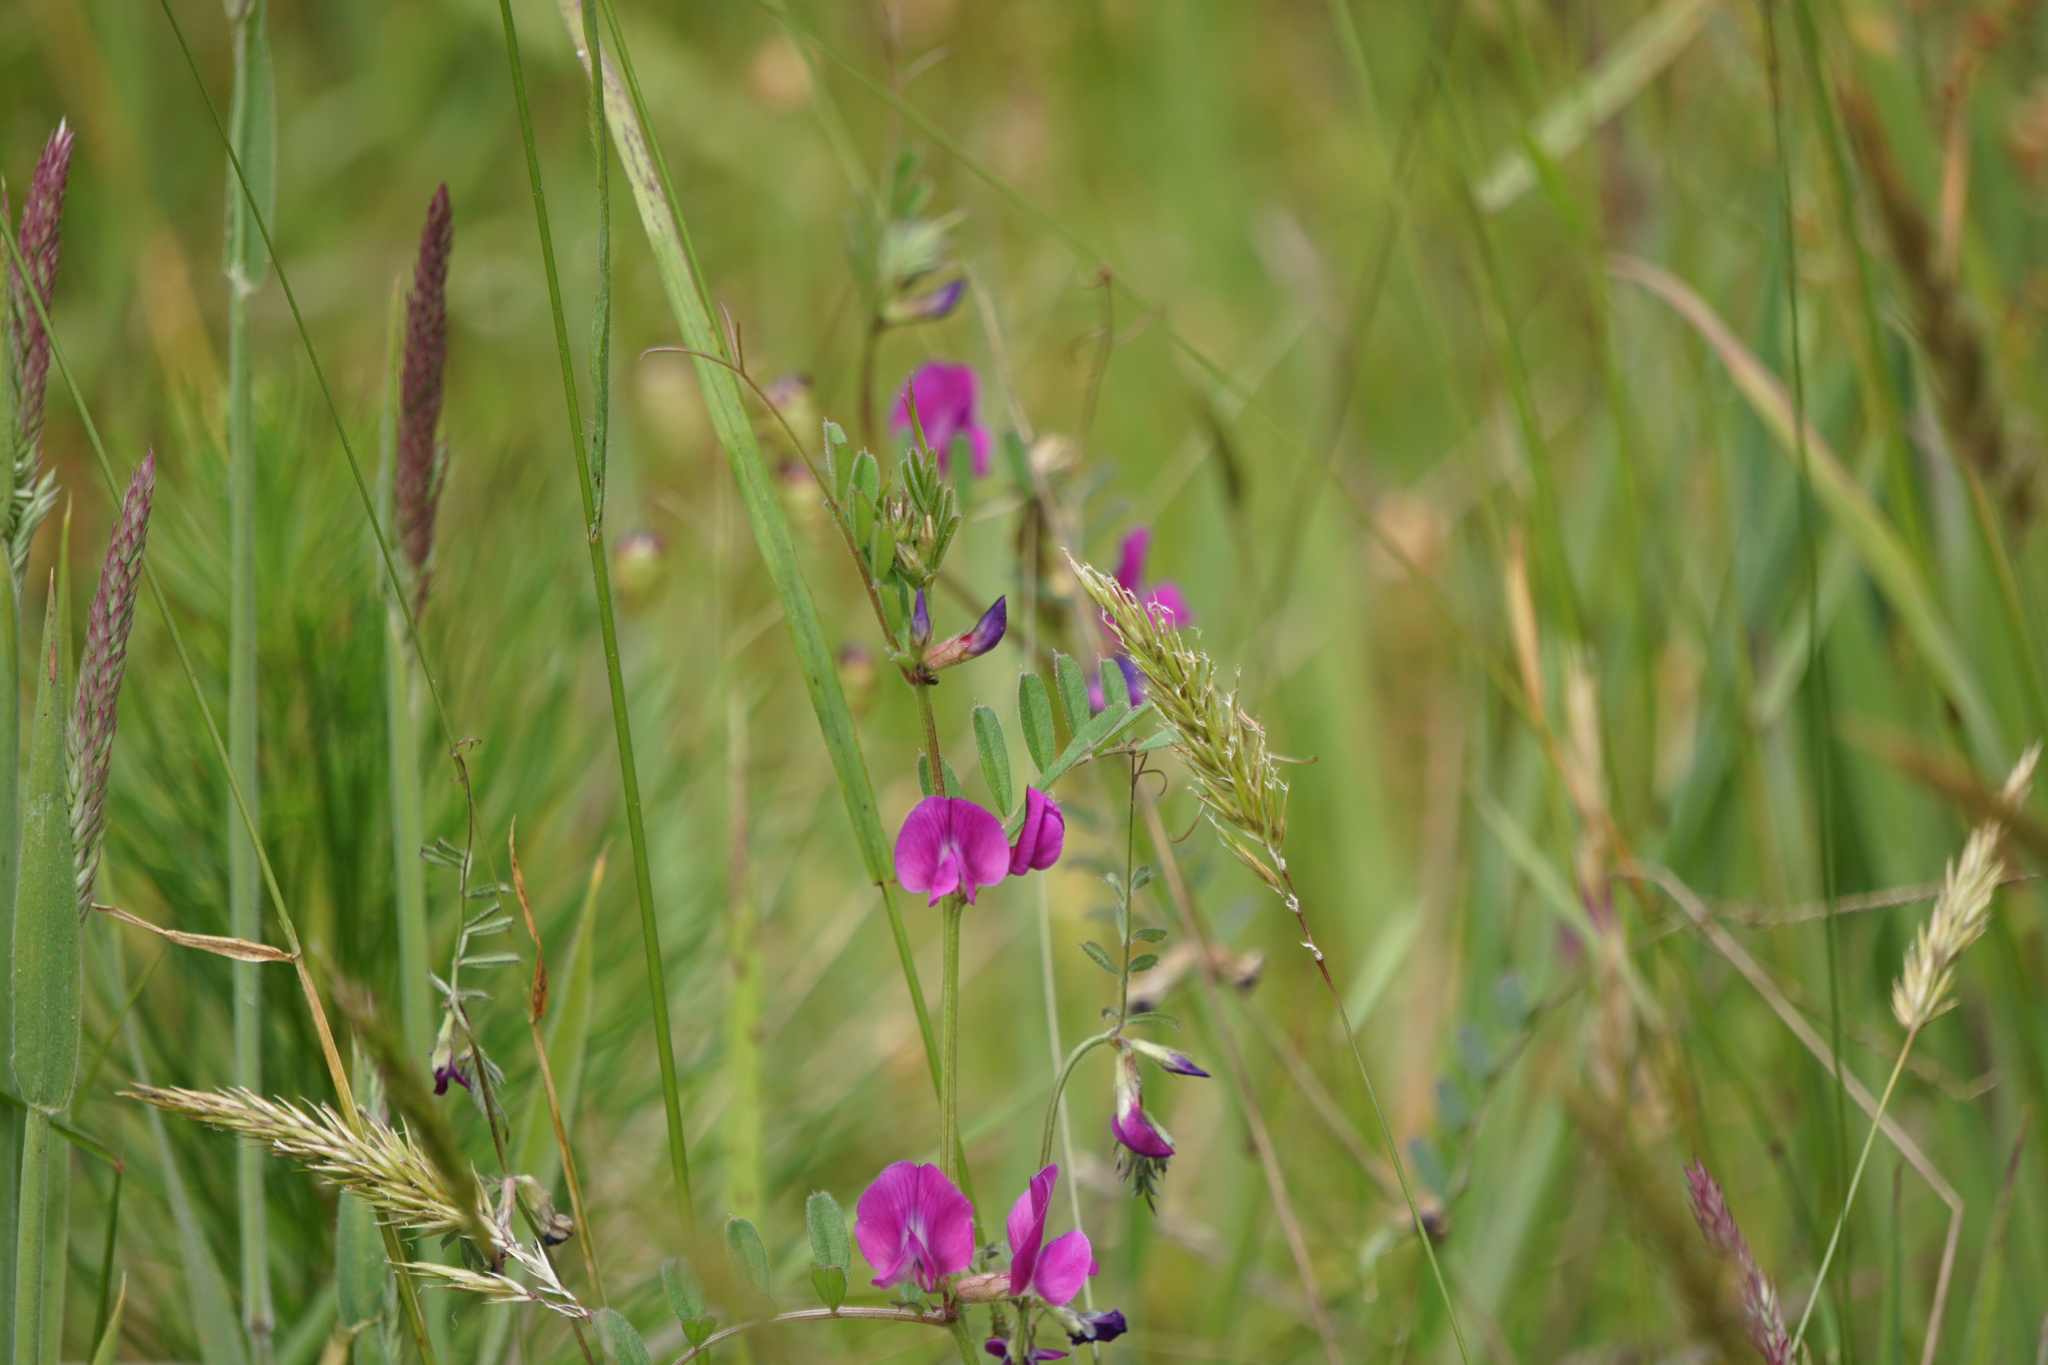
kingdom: Plantae
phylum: Tracheophyta
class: Magnoliopsida
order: Fabales
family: Fabaceae
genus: Vicia
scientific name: Vicia sativa
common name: Garden vetch
